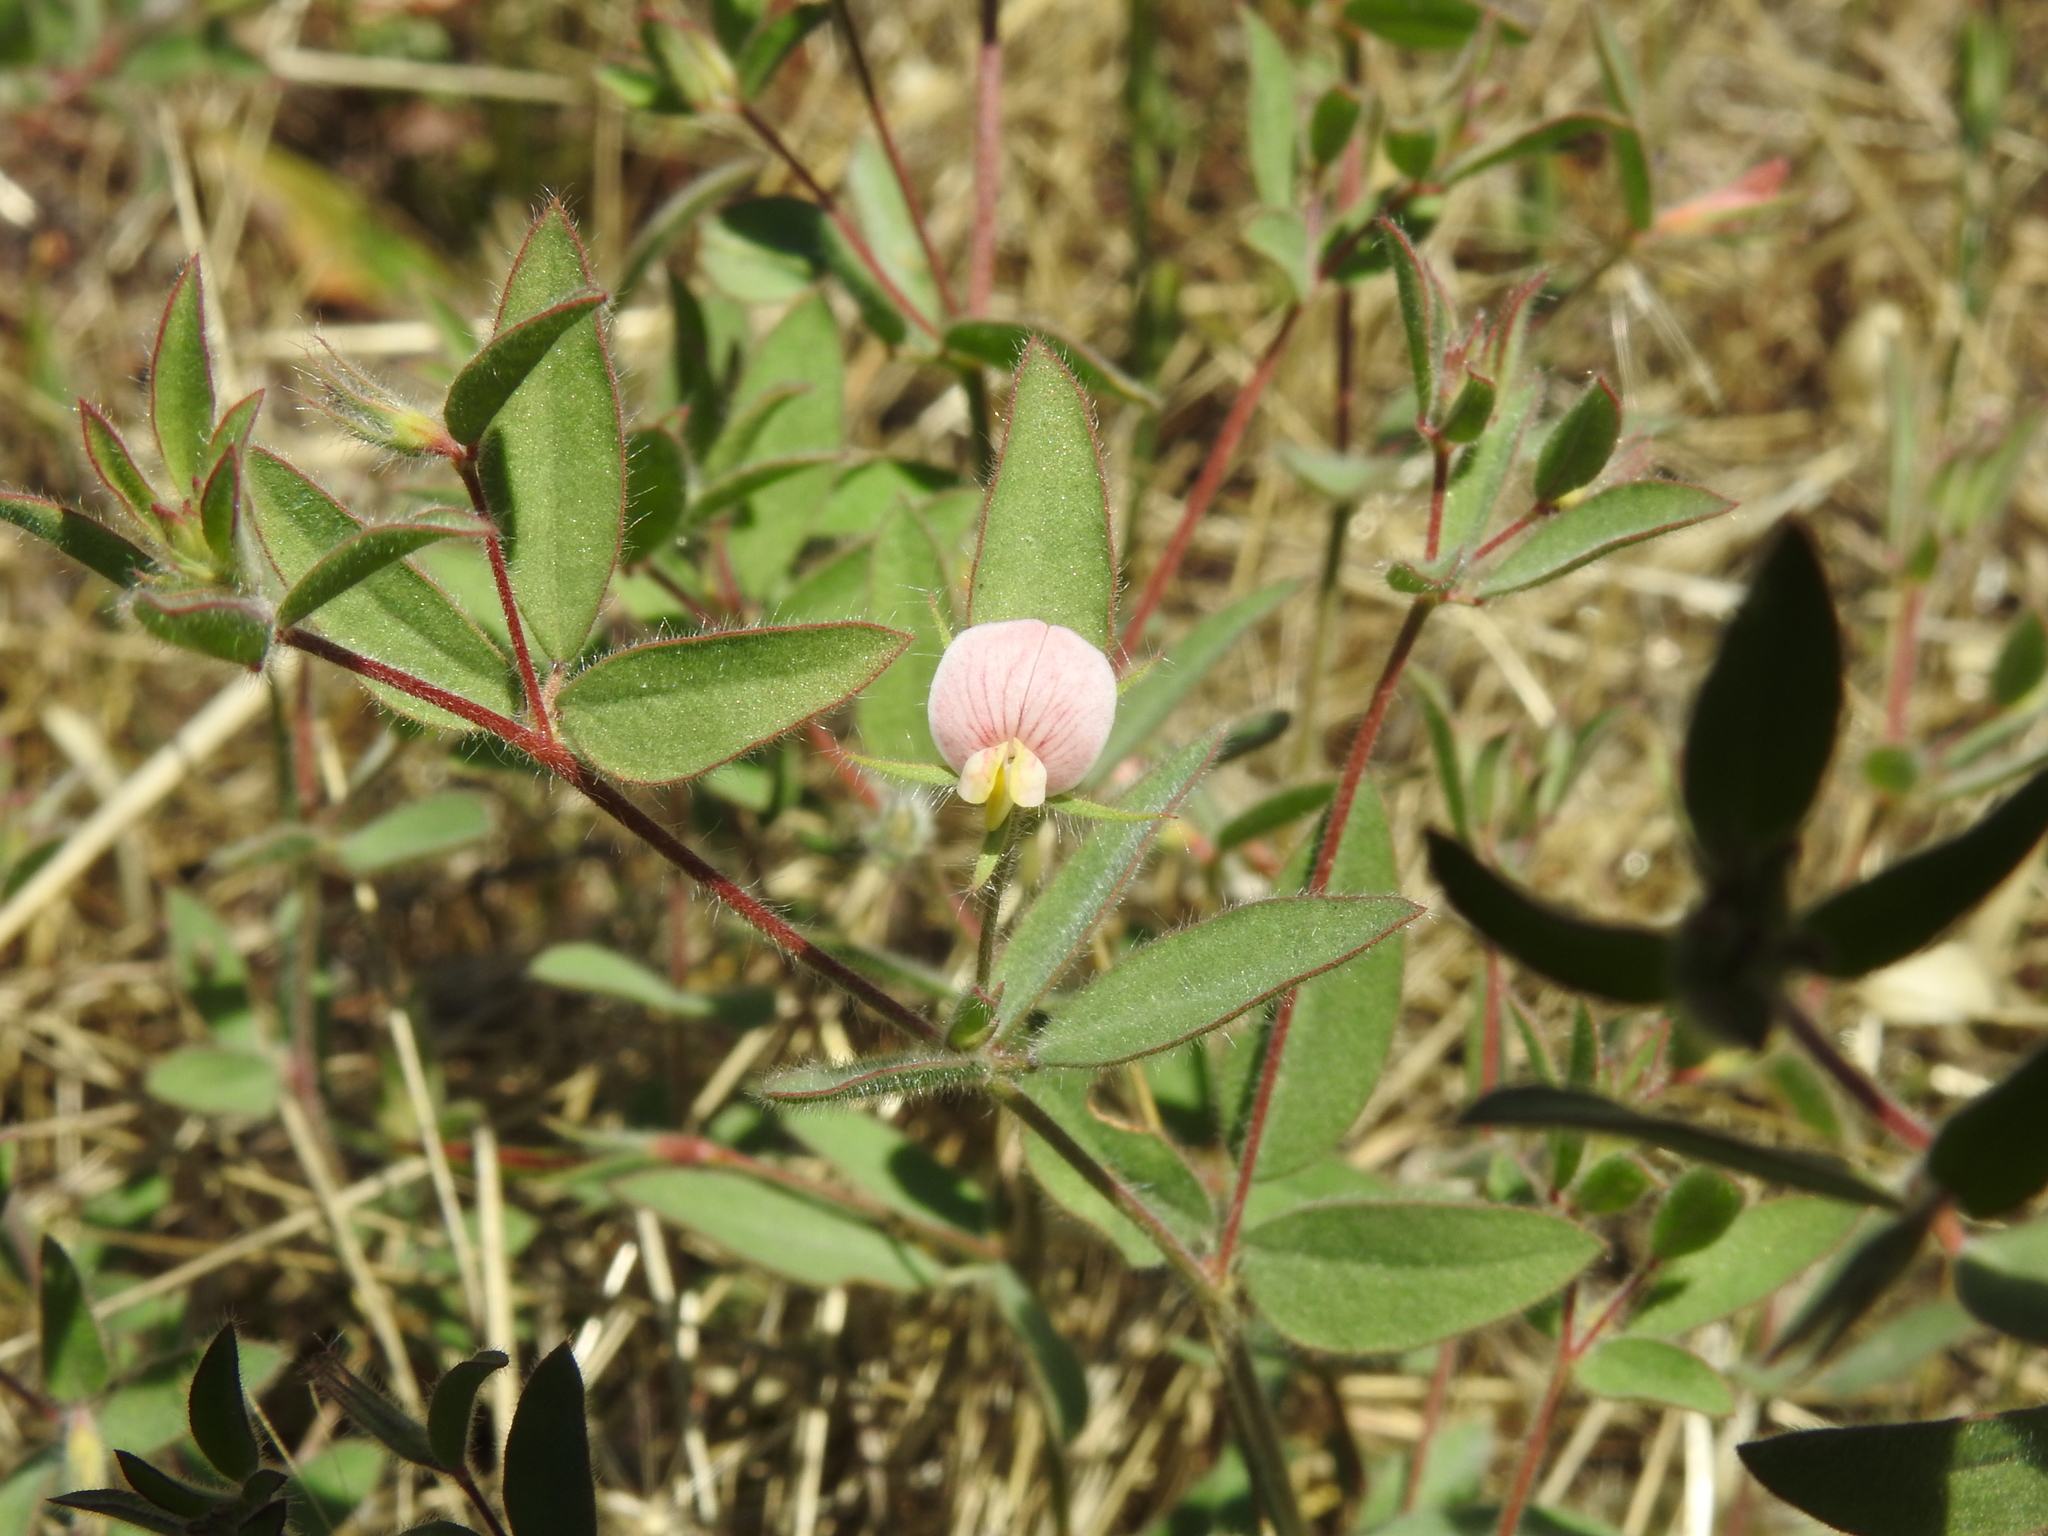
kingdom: Plantae
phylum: Tracheophyta
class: Magnoliopsida
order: Fabales
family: Fabaceae
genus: Acmispon
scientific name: Acmispon americanus
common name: American bird's-foot trefoil
